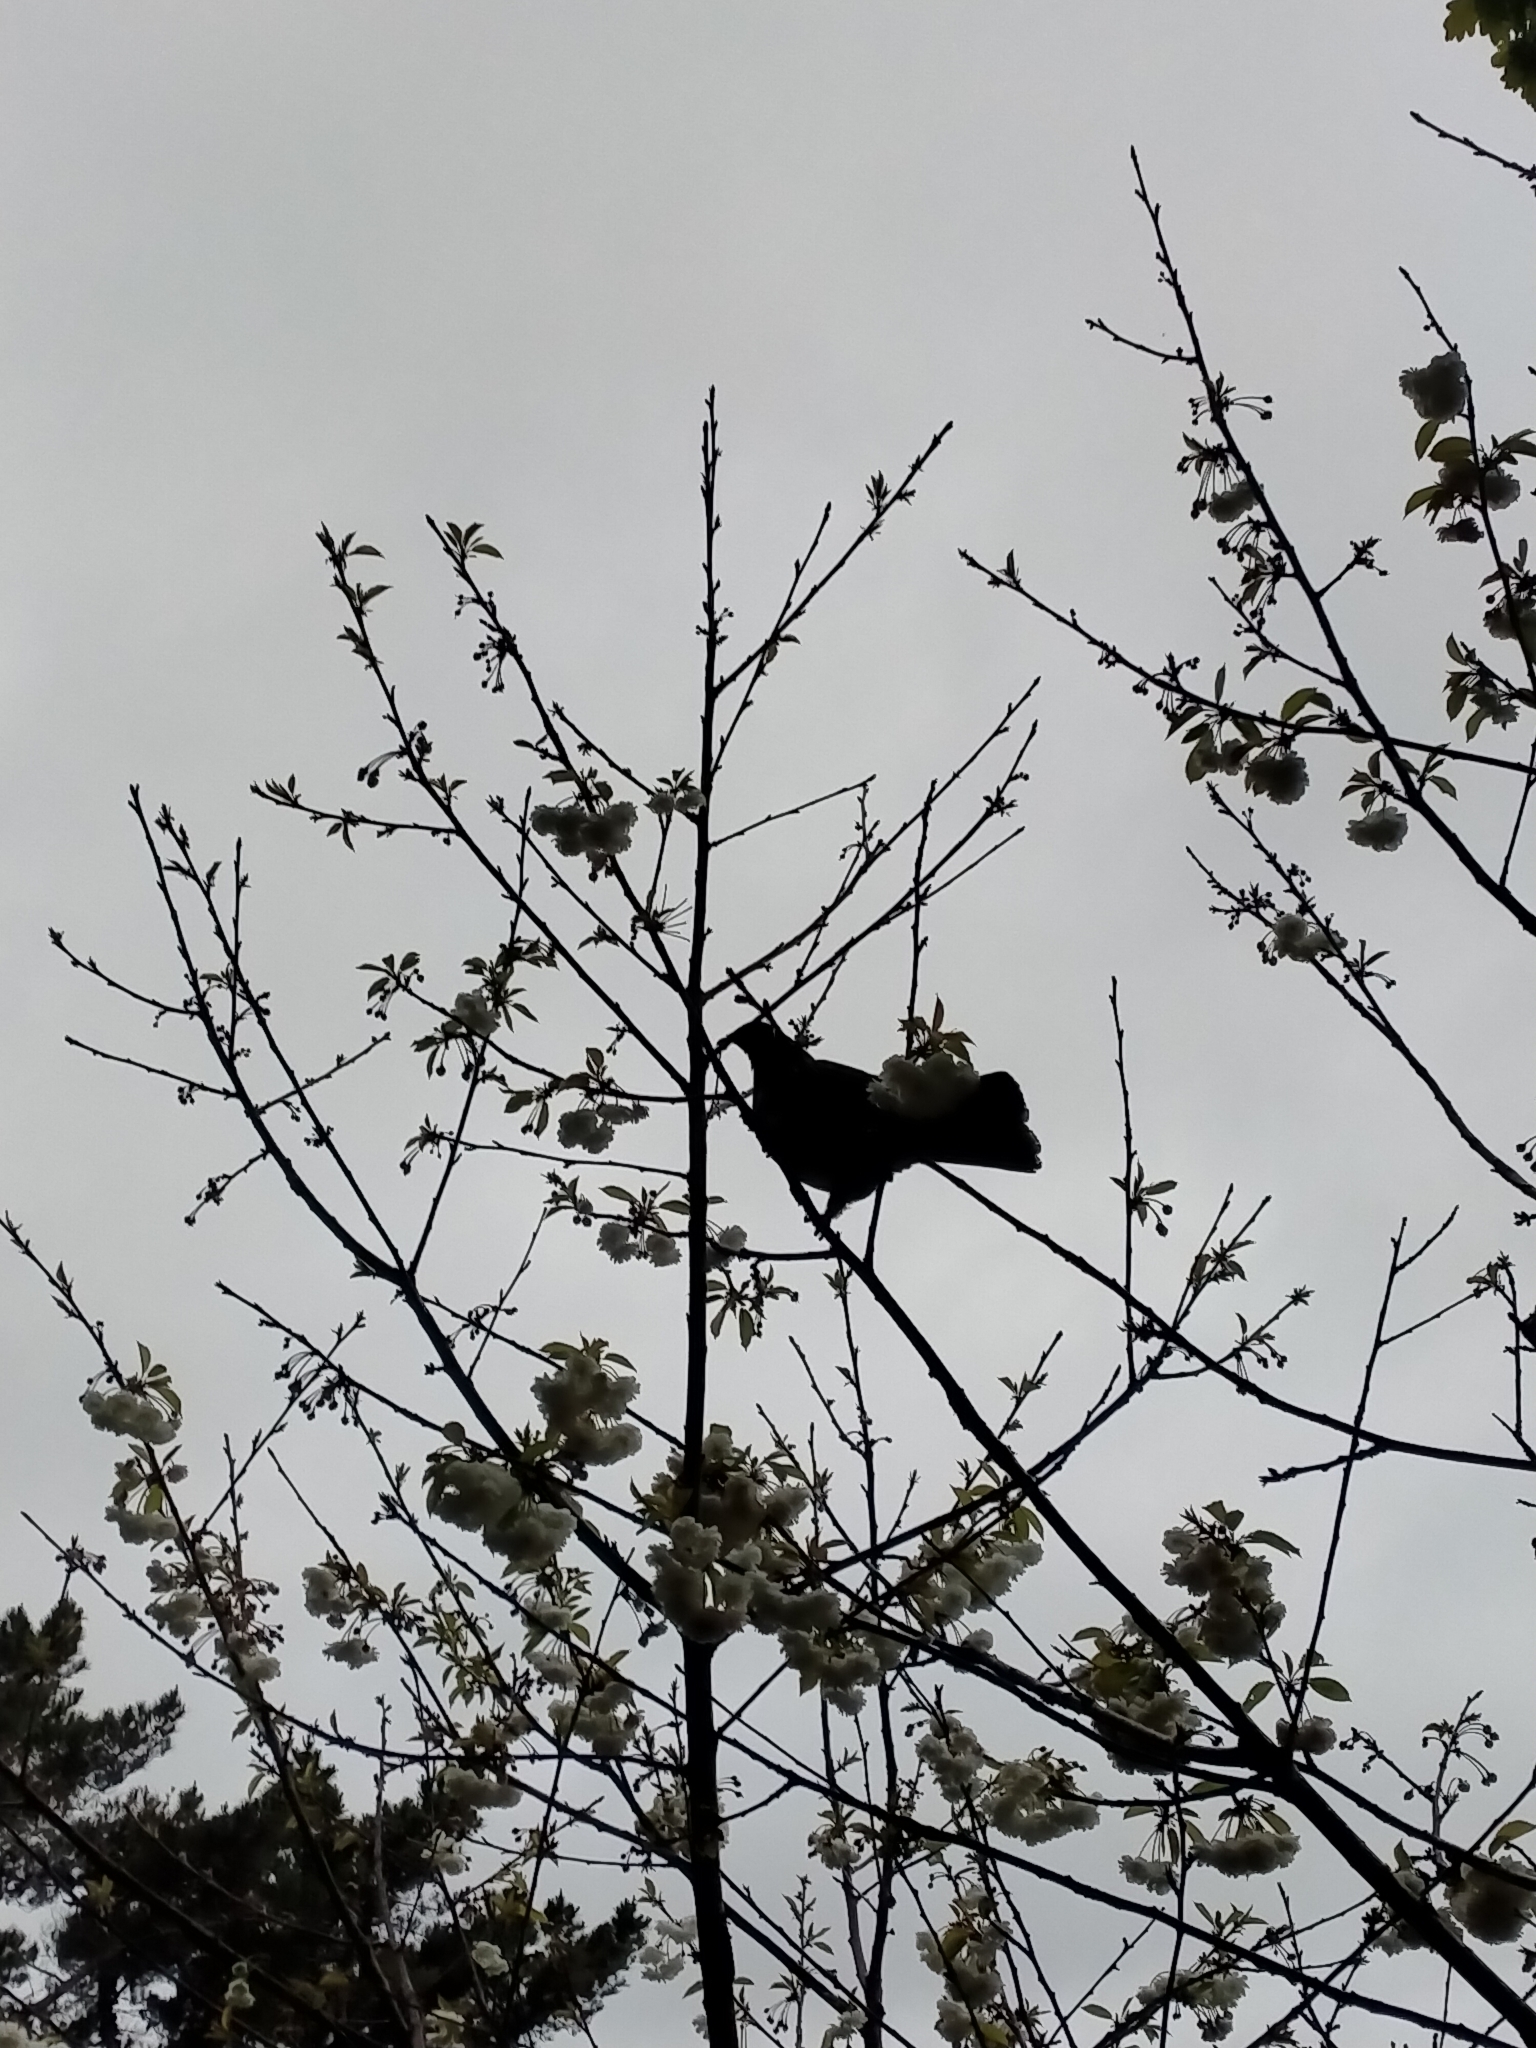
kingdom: Animalia
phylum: Chordata
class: Aves
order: Columbiformes
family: Columbidae
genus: Hemiphaga
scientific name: Hemiphaga novaeseelandiae
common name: New zealand pigeon
